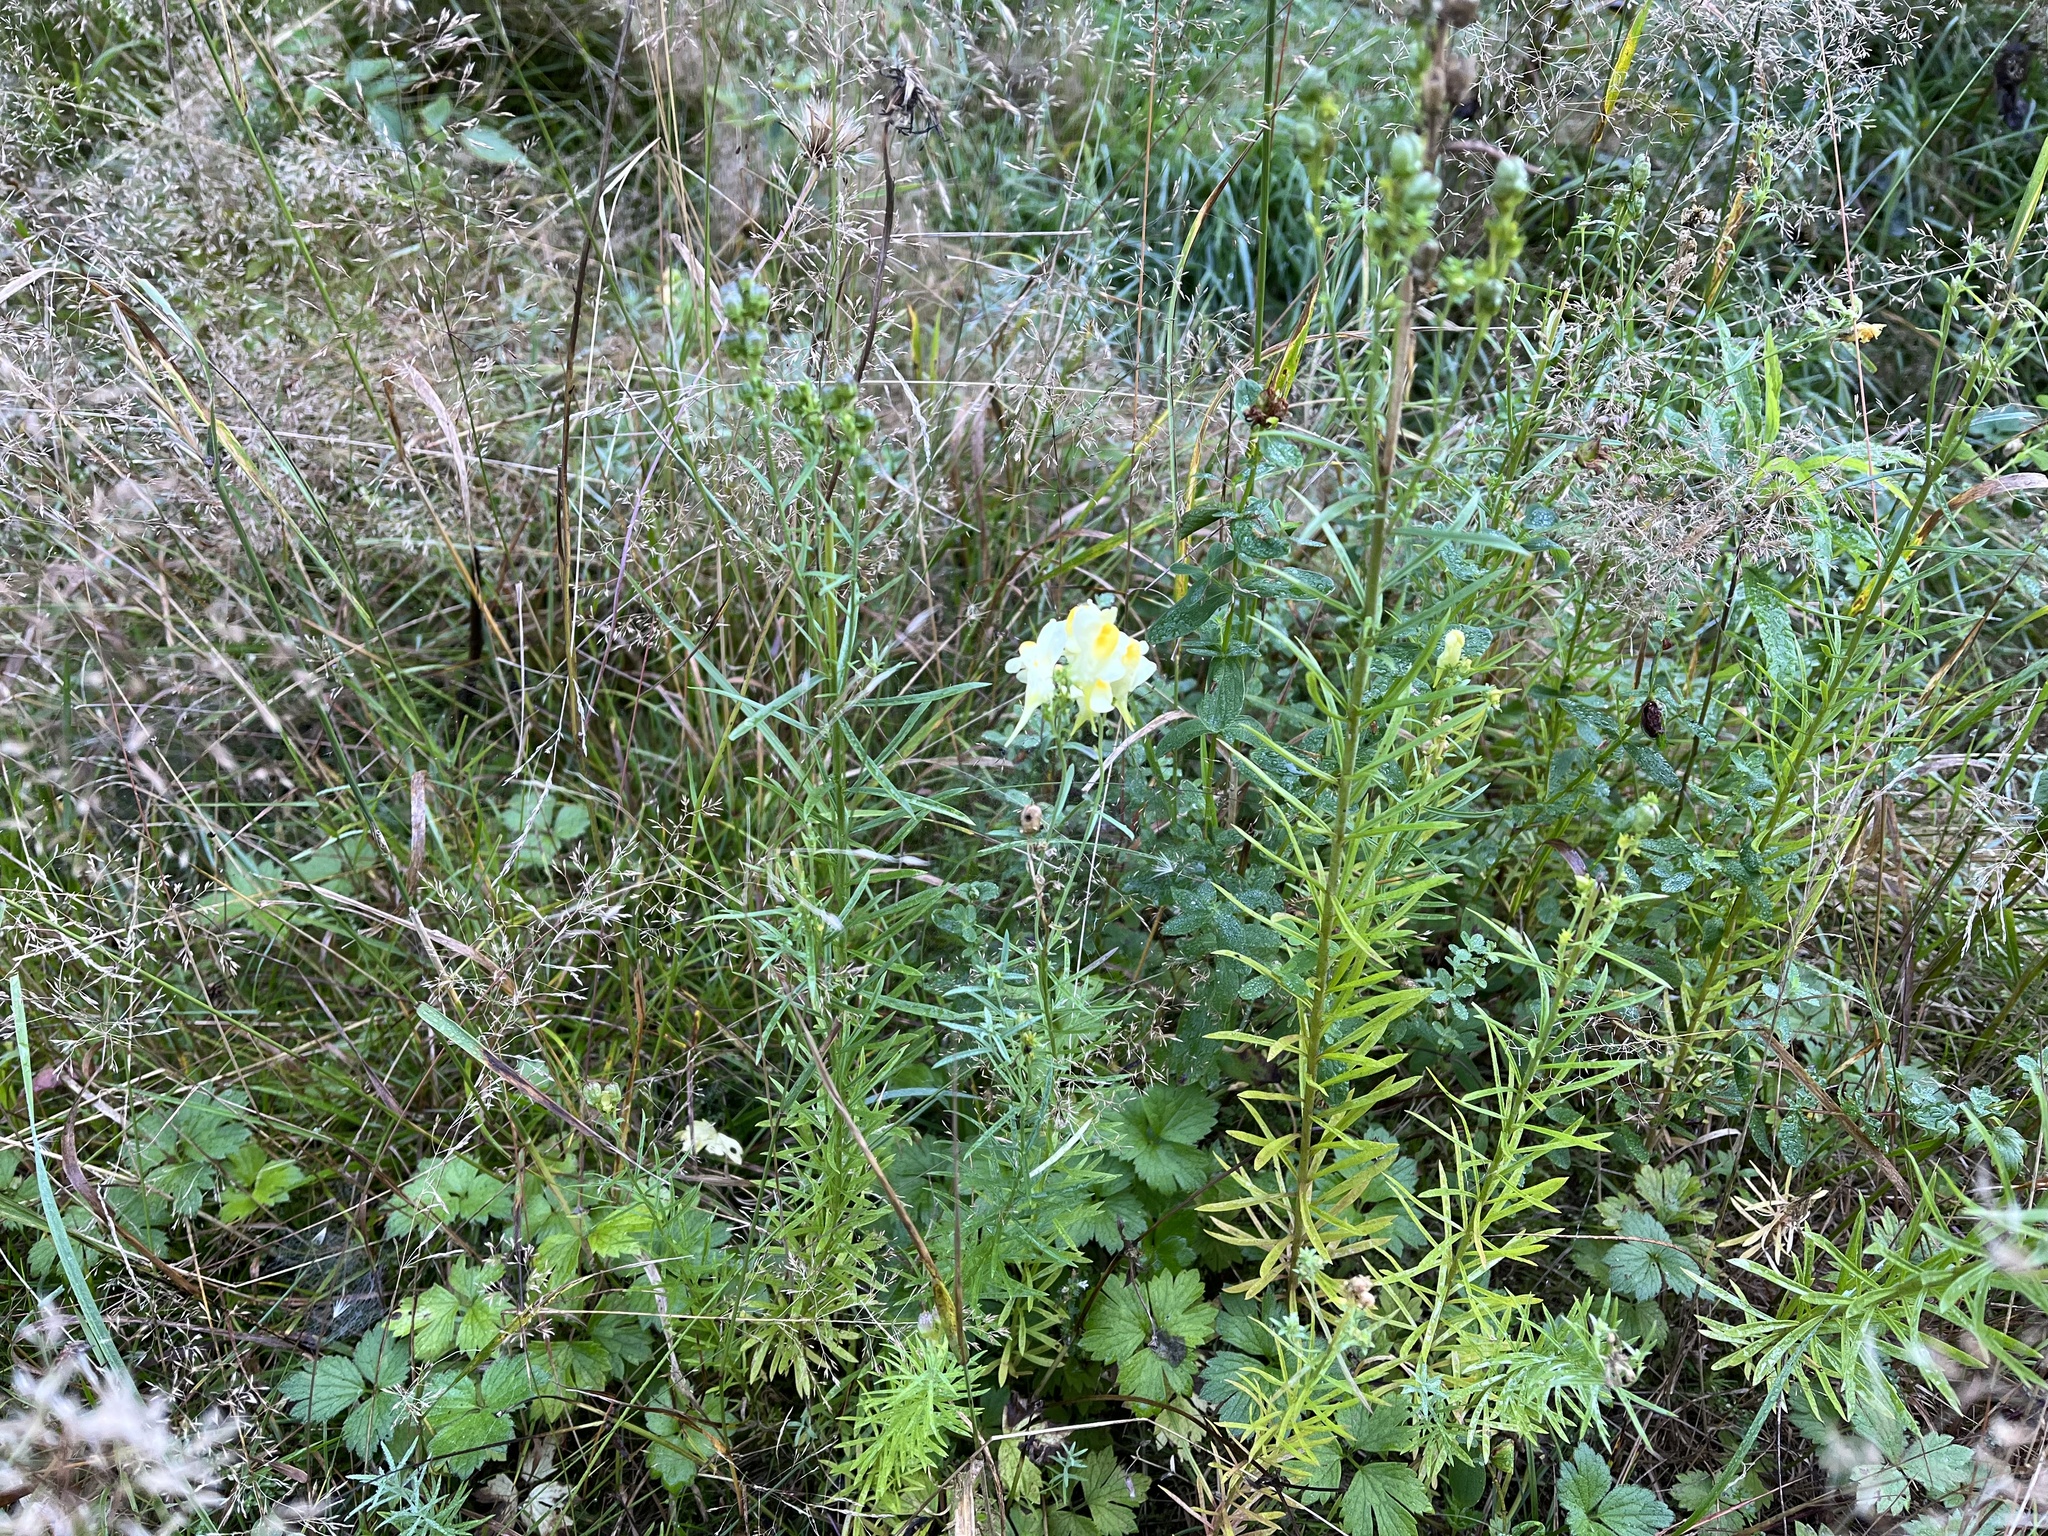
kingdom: Plantae
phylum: Tracheophyta
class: Magnoliopsida
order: Lamiales
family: Plantaginaceae
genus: Linaria
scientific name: Linaria vulgaris
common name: Butter and eggs
